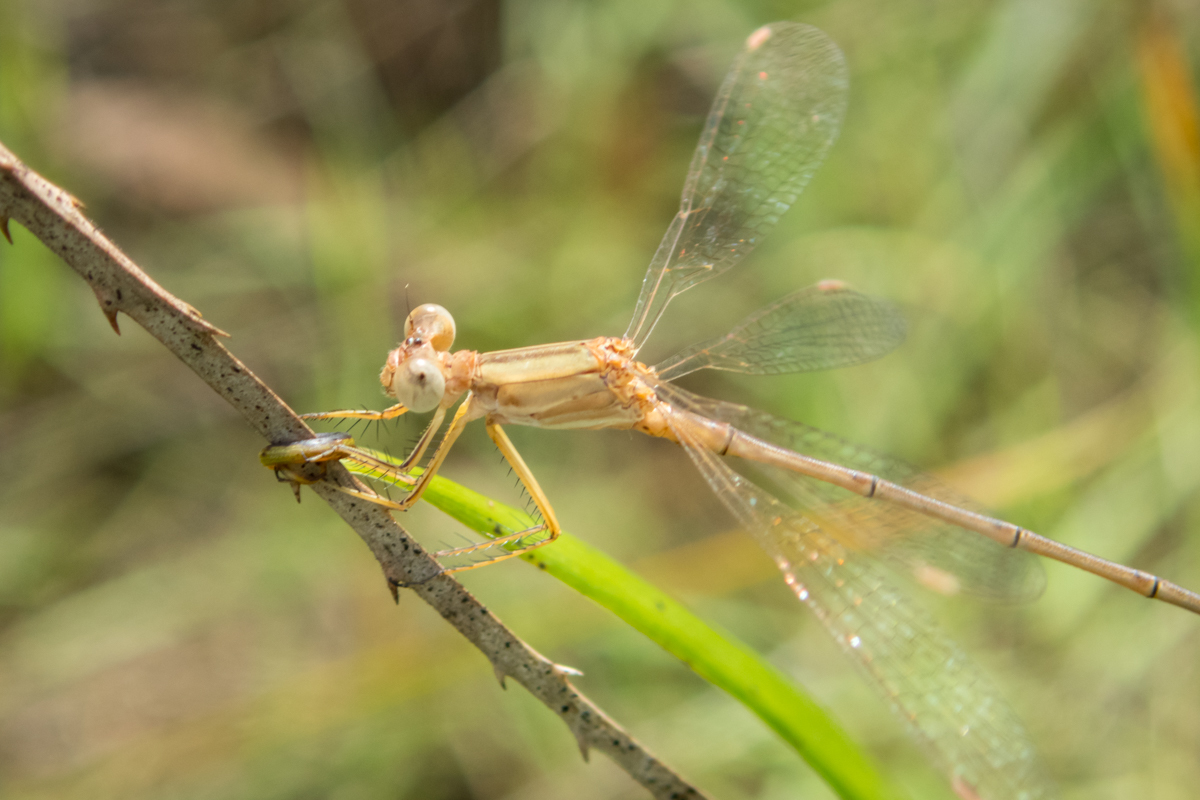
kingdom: Animalia
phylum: Arthropoda
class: Insecta
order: Odonata
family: Lestidae
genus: Lestes
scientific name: Lestes concinnus
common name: Dusky spreadwing
